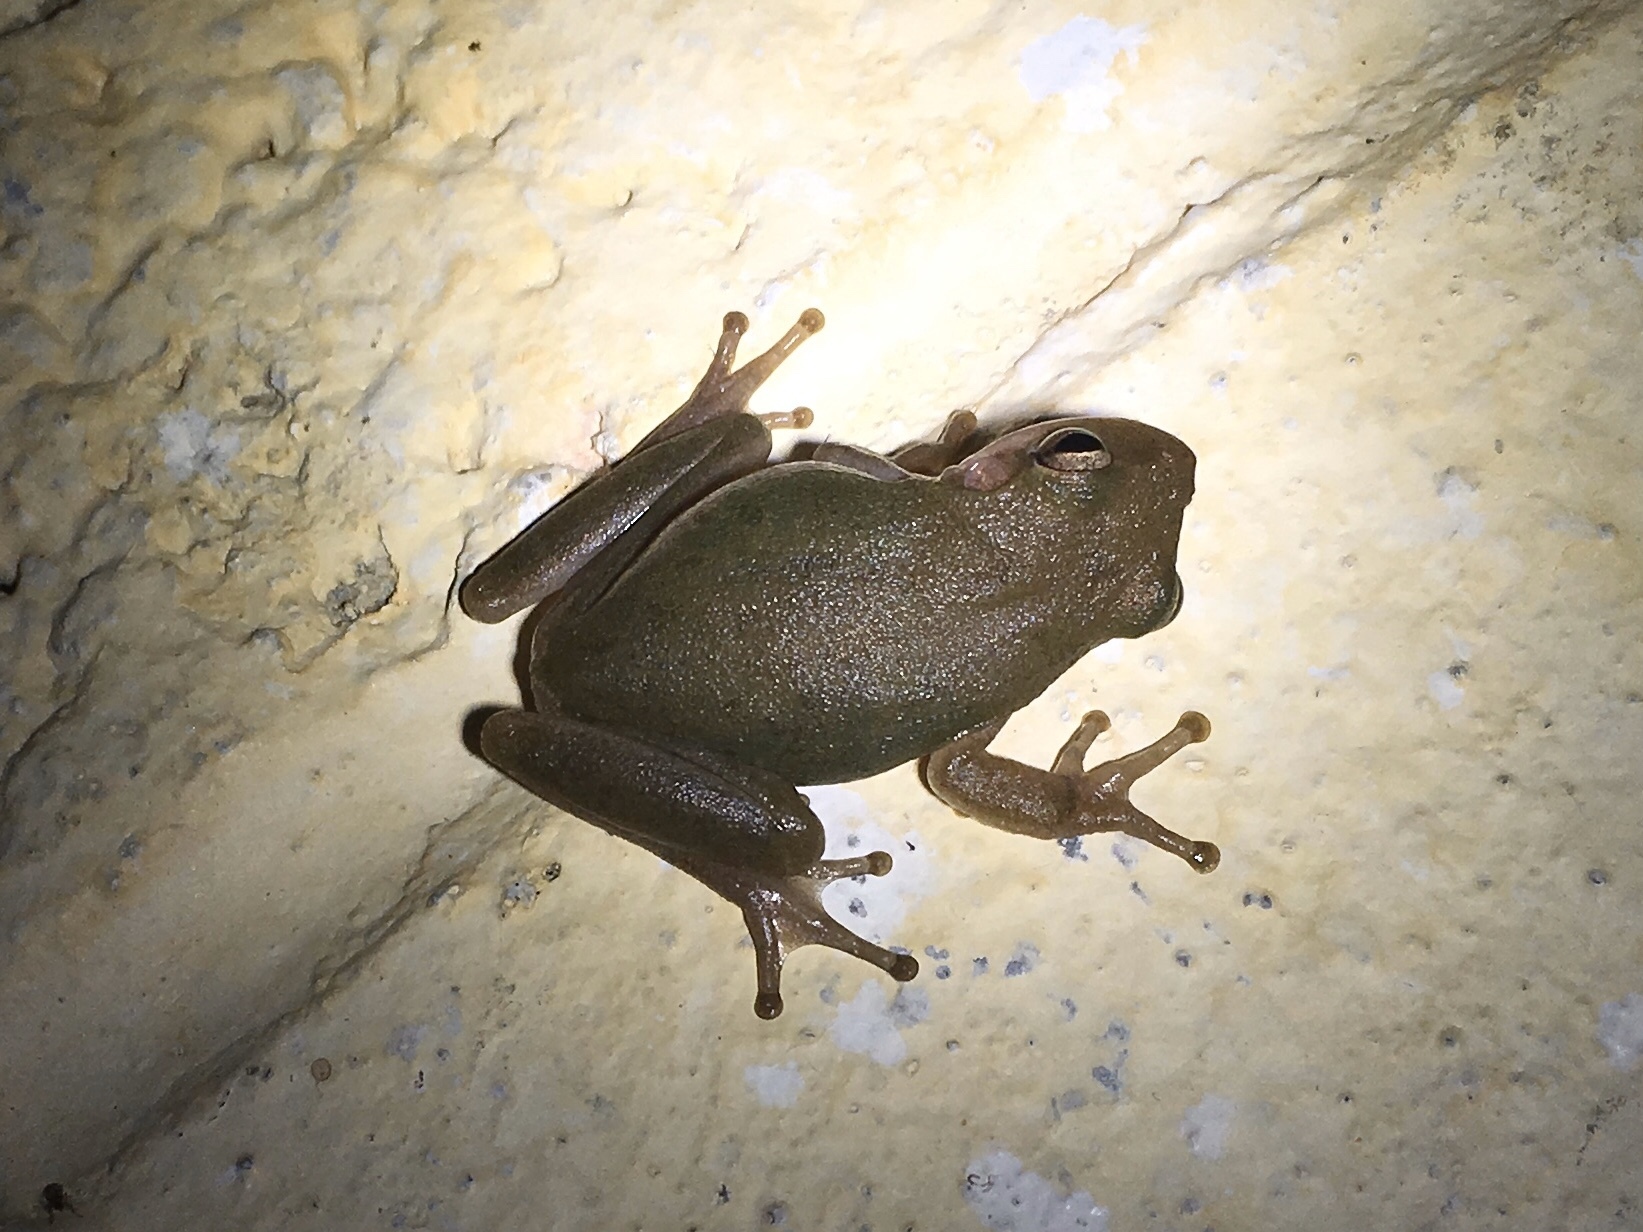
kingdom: Animalia
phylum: Chordata
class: Amphibia
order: Anura
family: Hylidae
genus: Dryophytes
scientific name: Dryophytes squirellus
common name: Squirrel treefrog
